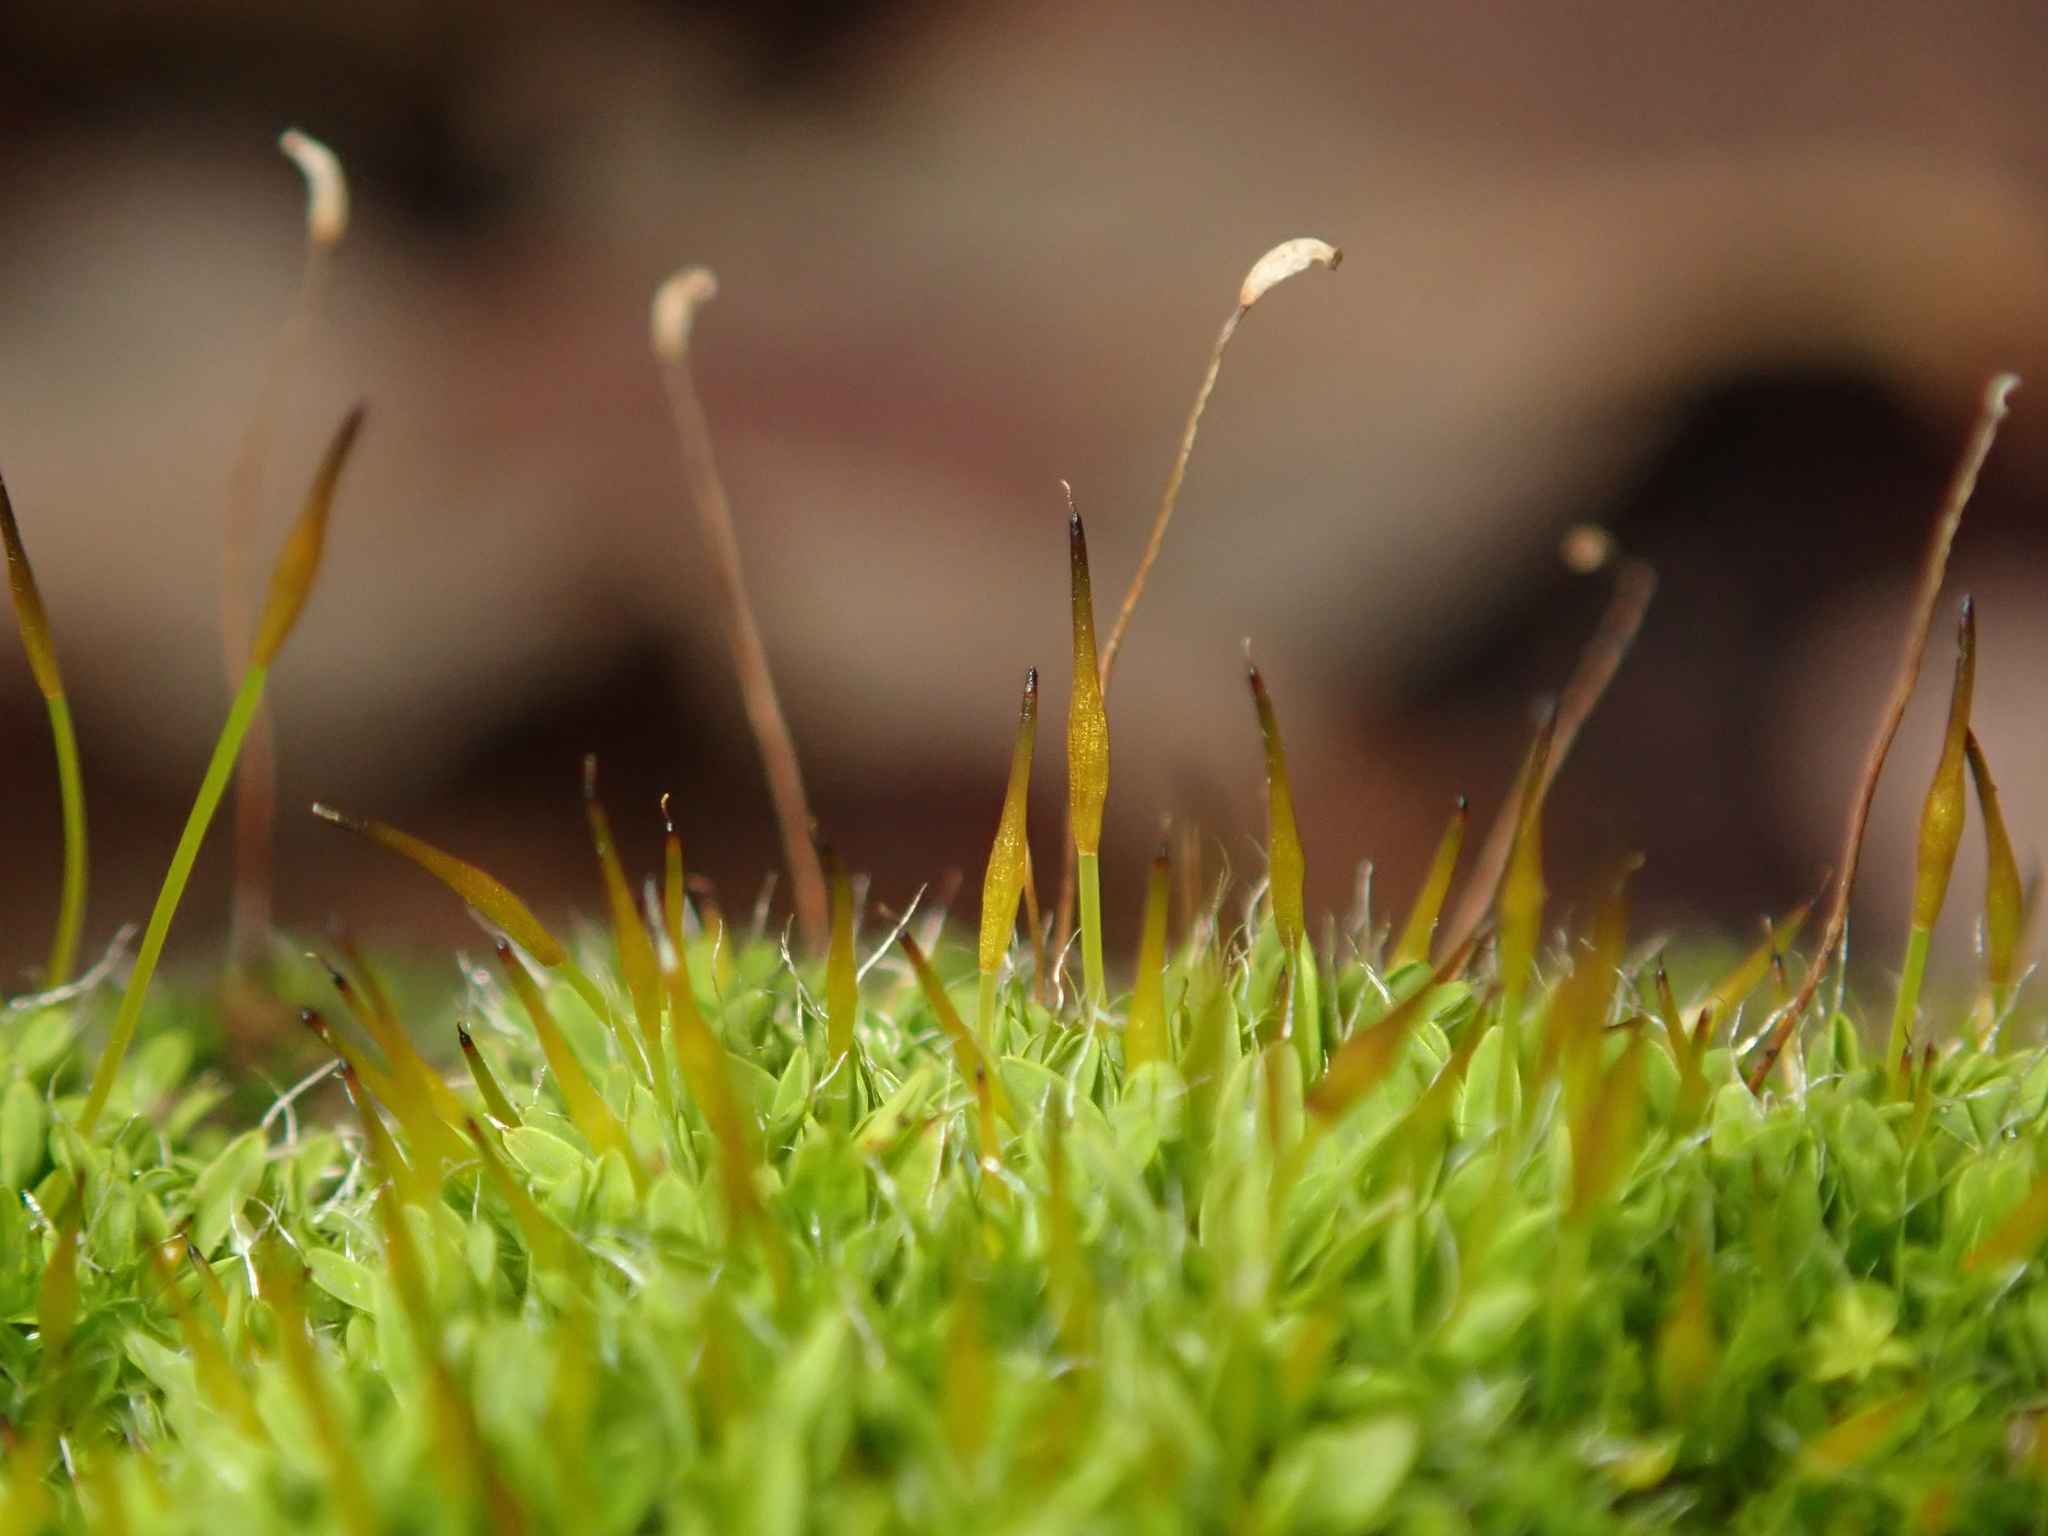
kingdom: Plantae
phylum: Bryophyta
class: Bryopsida
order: Pottiales
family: Pottiaceae
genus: Tortula
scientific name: Tortula muralis
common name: Wall screw-moss
